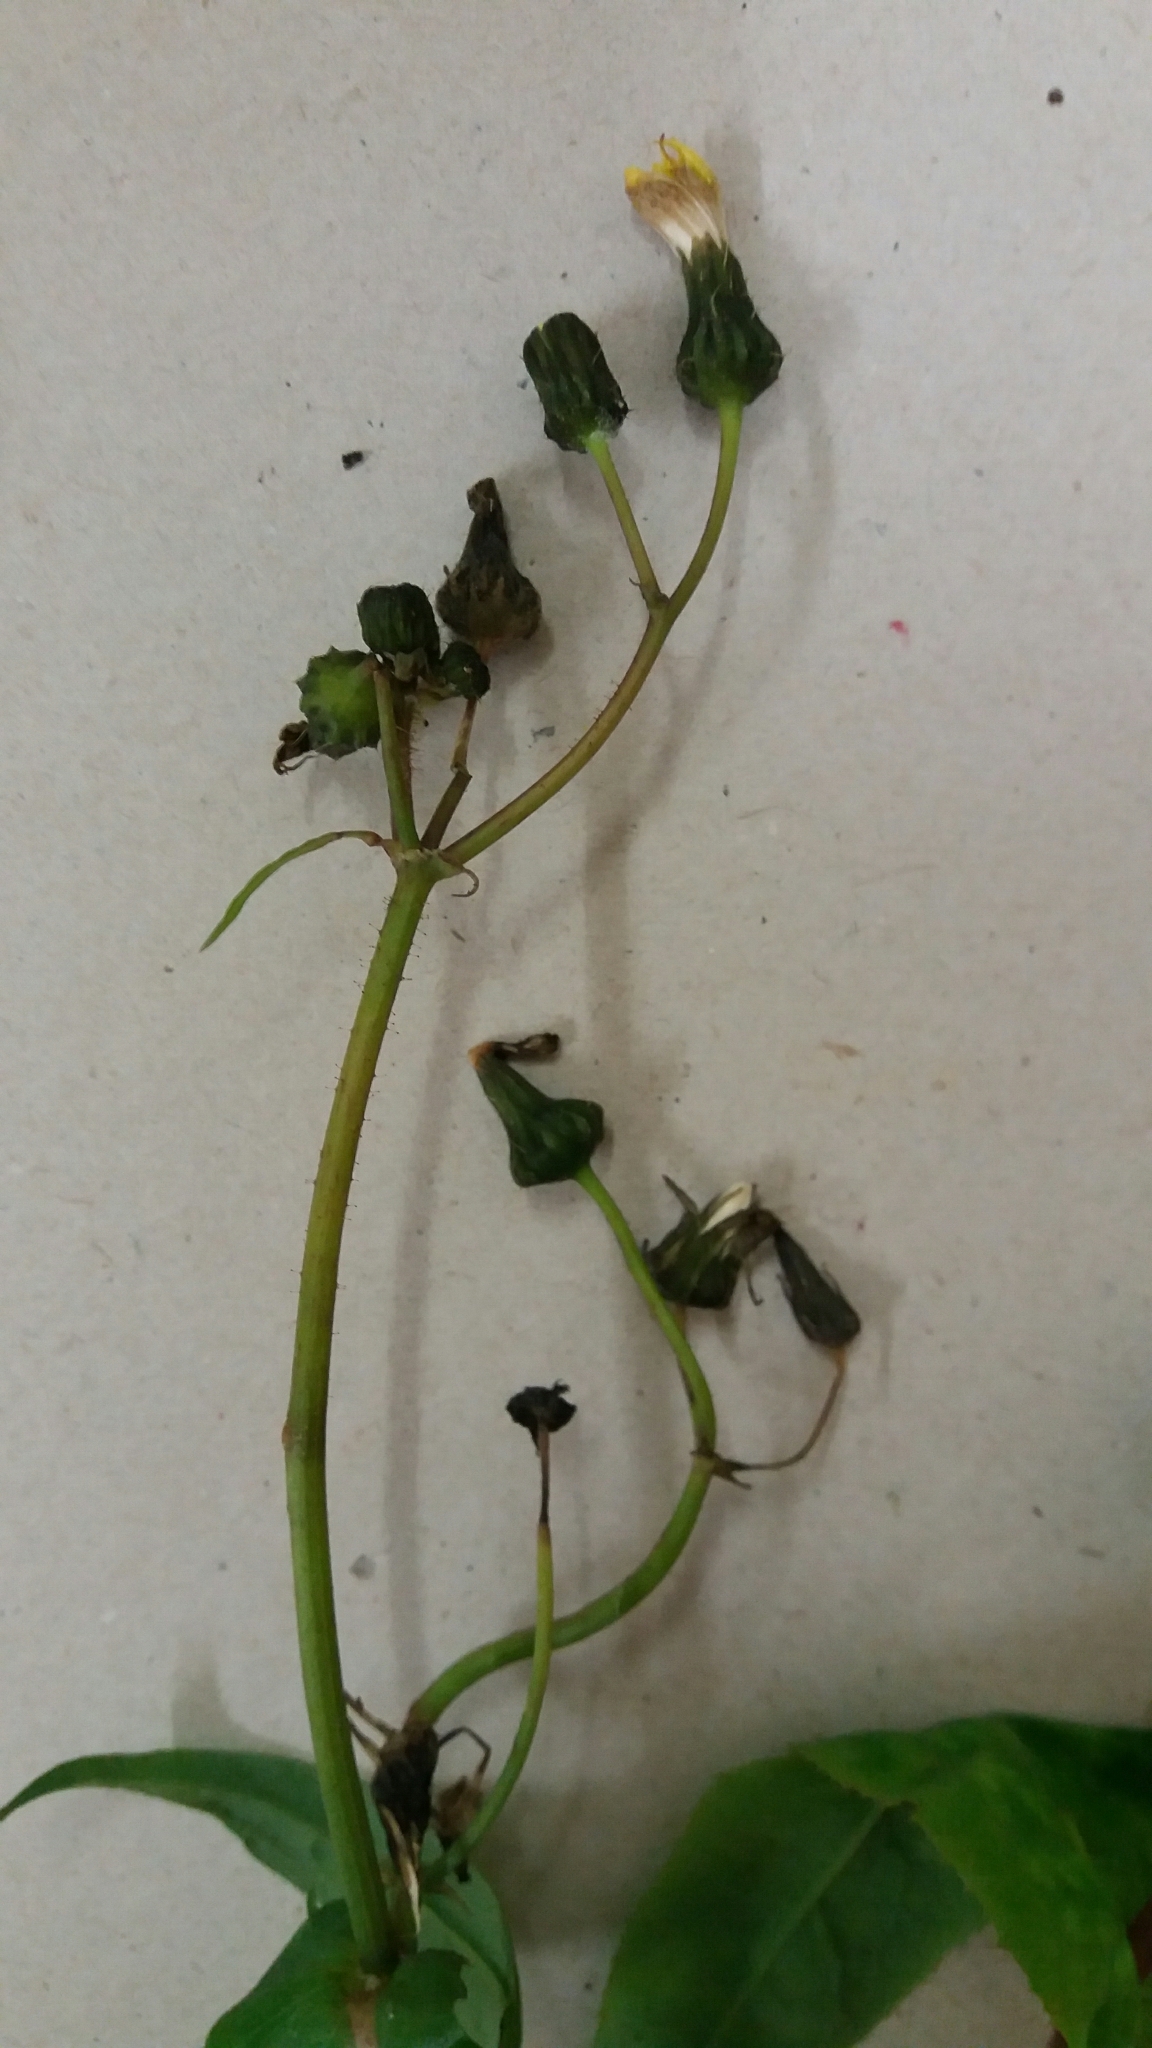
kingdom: Plantae
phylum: Tracheophyta
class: Magnoliopsida
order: Asterales
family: Asteraceae
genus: Sonchus
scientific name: Sonchus oleraceus
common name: Common sowthistle
